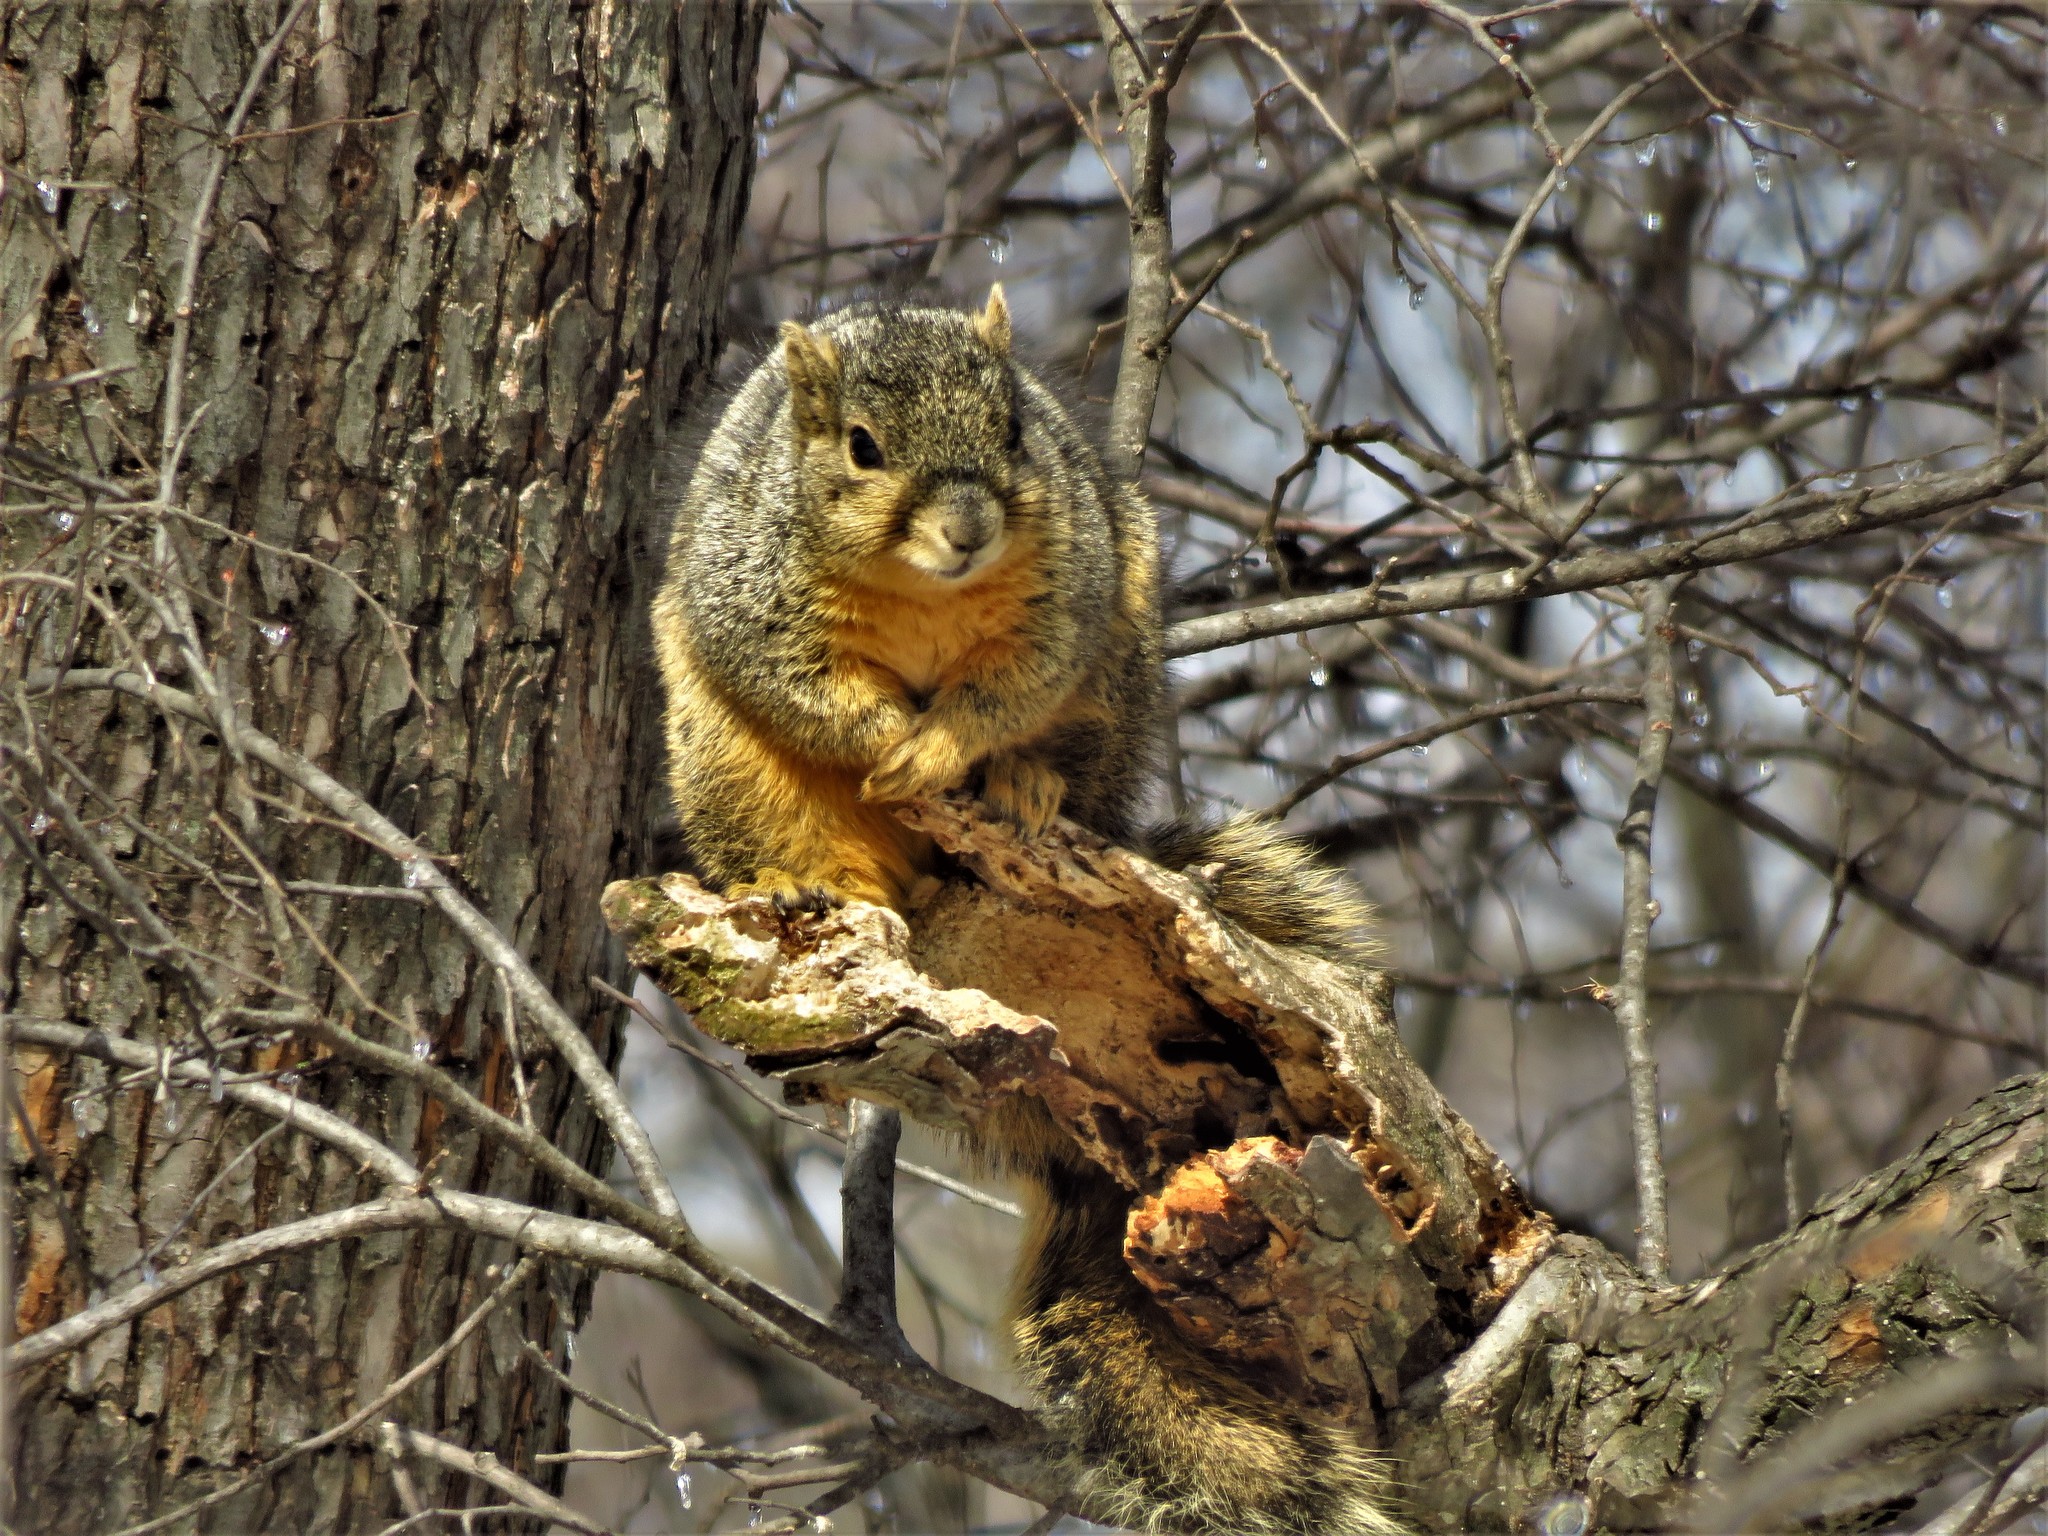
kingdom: Animalia
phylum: Chordata
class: Mammalia
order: Rodentia
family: Sciuridae
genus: Sciurus
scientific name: Sciurus niger
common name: Fox squirrel
